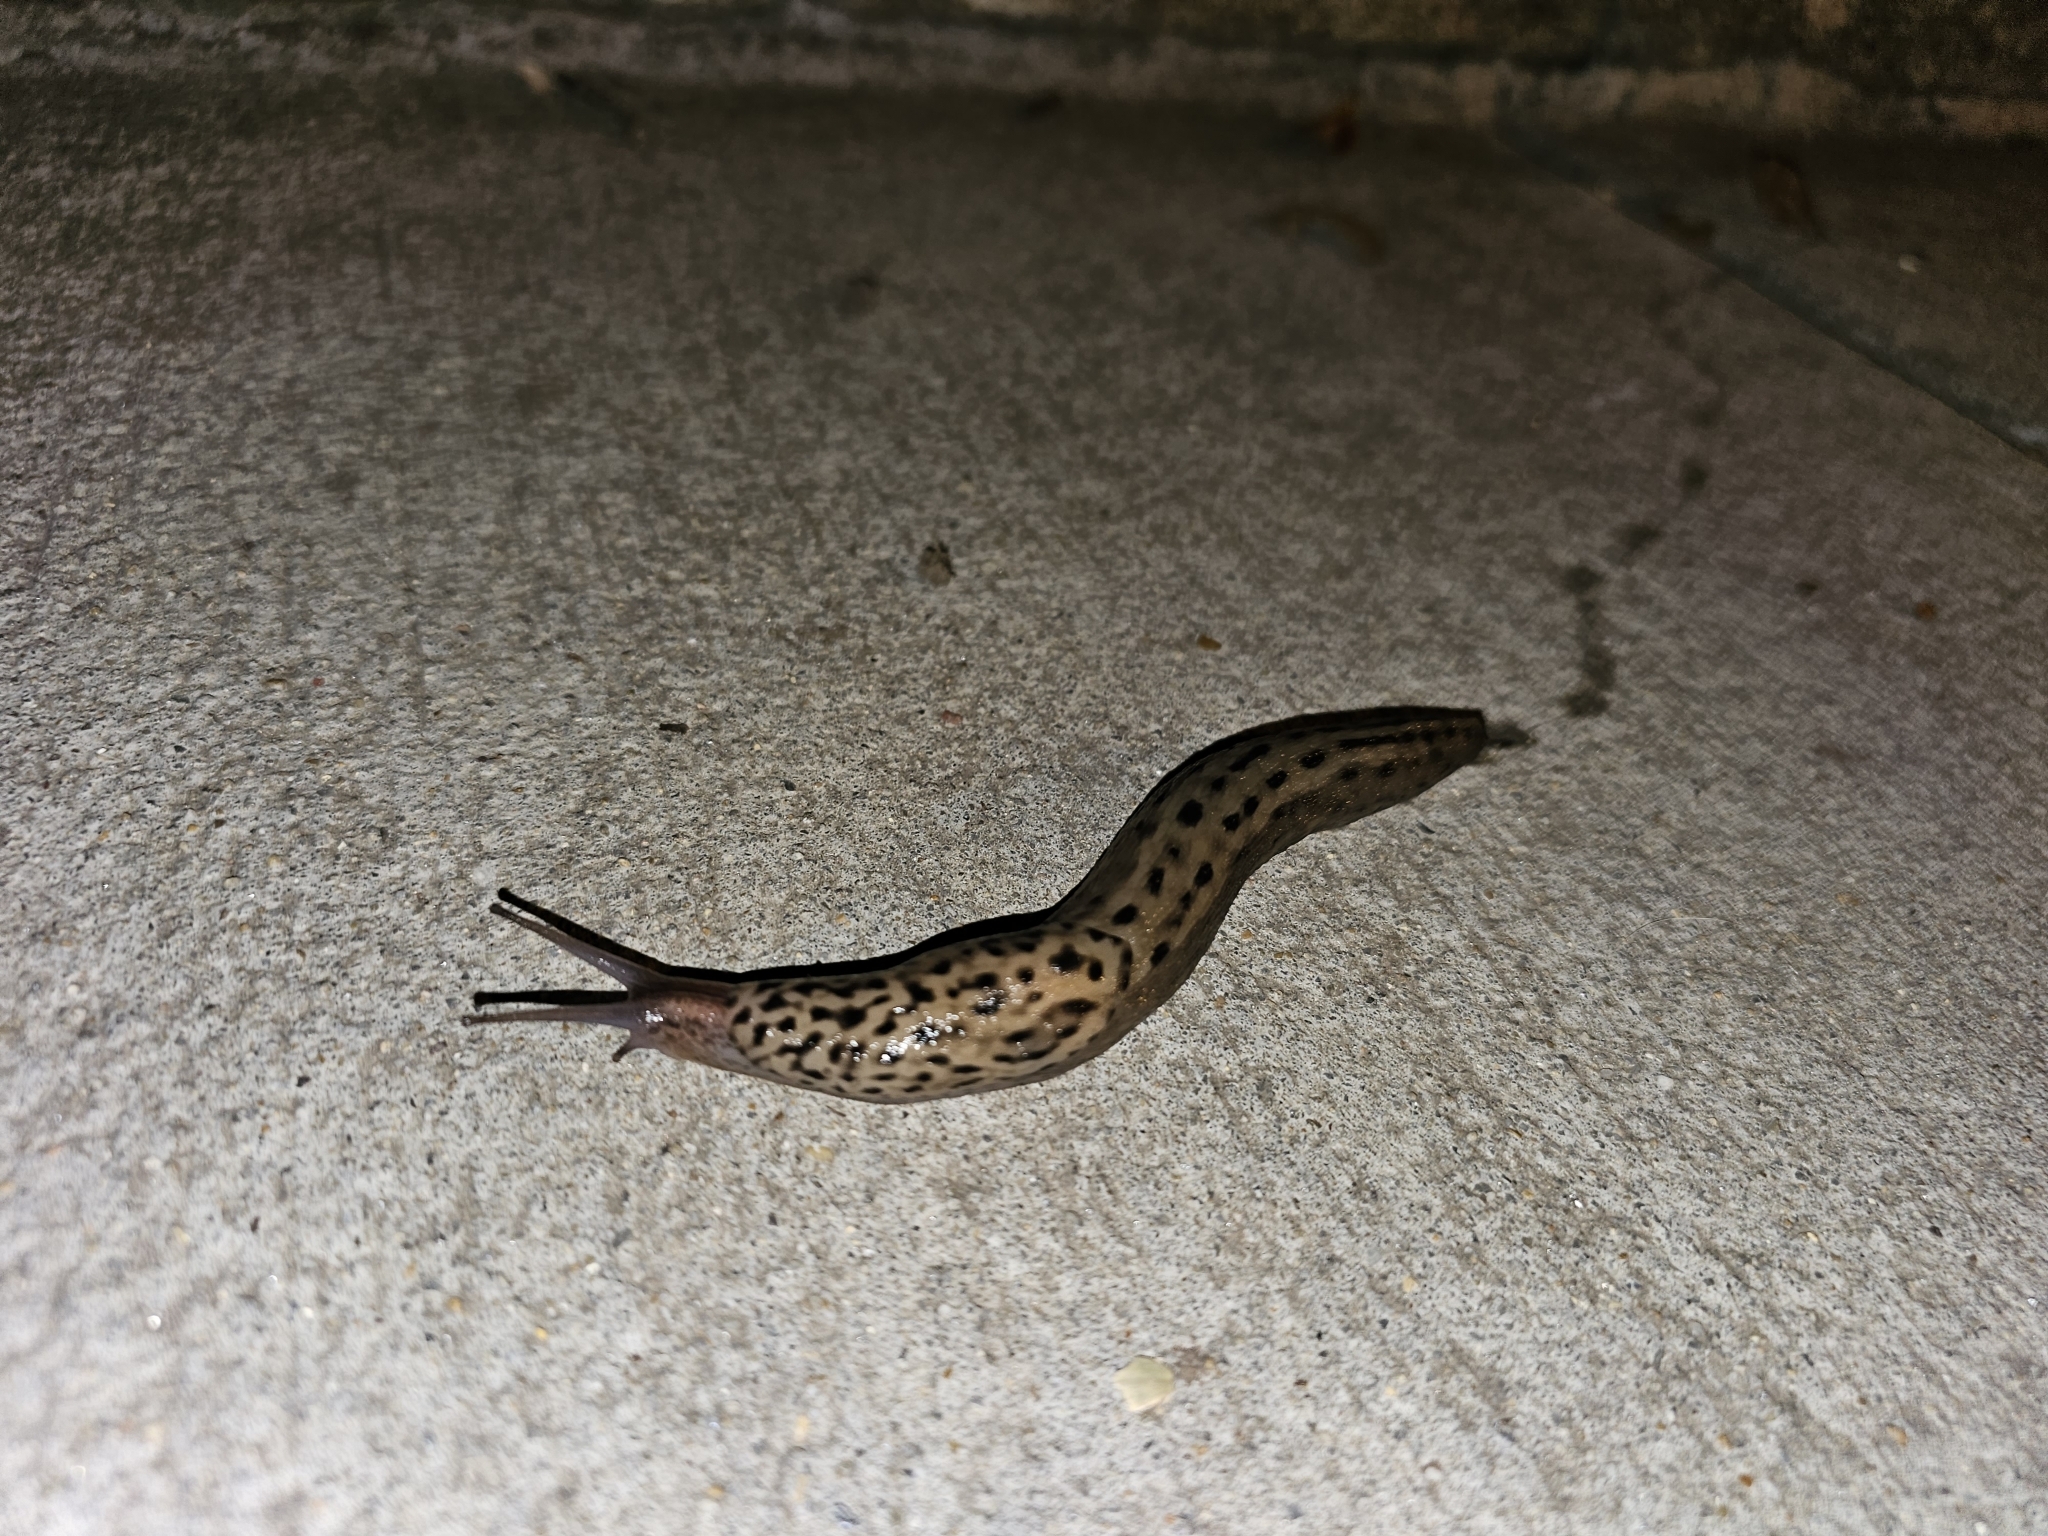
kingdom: Animalia
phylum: Mollusca
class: Gastropoda
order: Stylommatophora
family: Limacidae
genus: Limax
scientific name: Limax maximus
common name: Great grey slug
